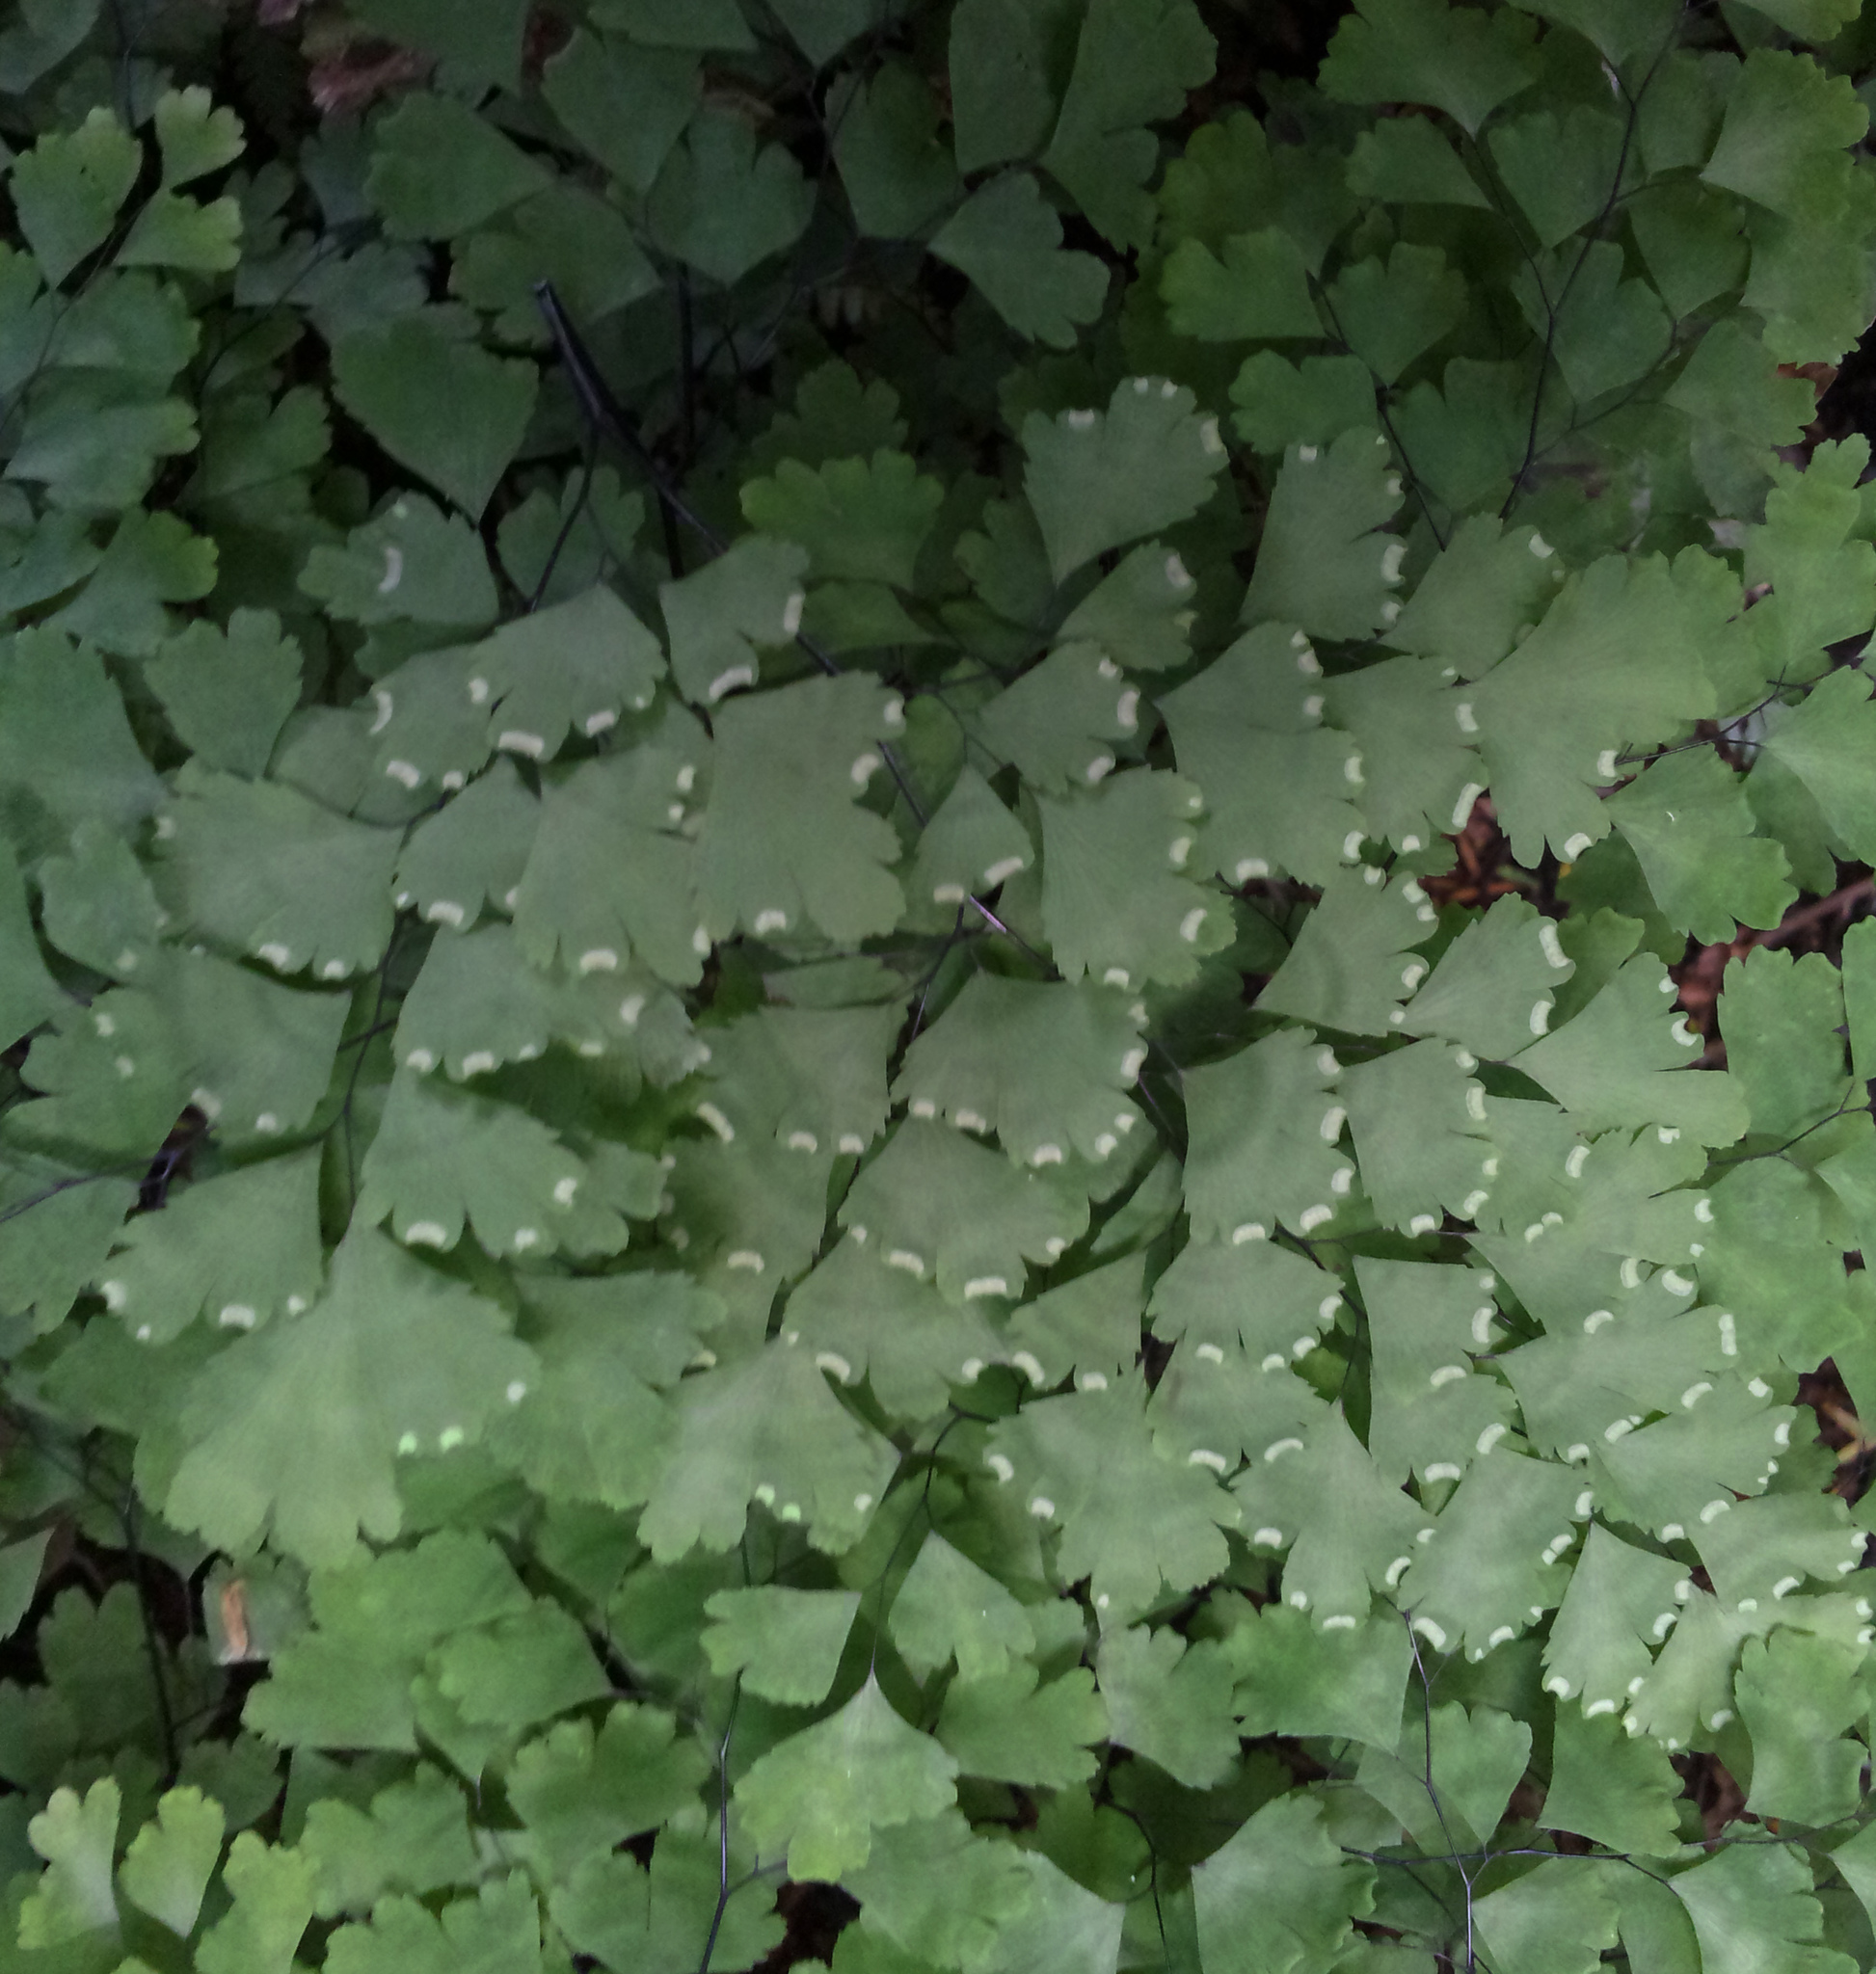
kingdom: Plantae
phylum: Tracheophyta
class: Polypodiopsida
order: Polypodiales
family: Pteridaceae
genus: Adiantum
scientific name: Adiantum capillus-veneris
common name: Maidenhair fern
